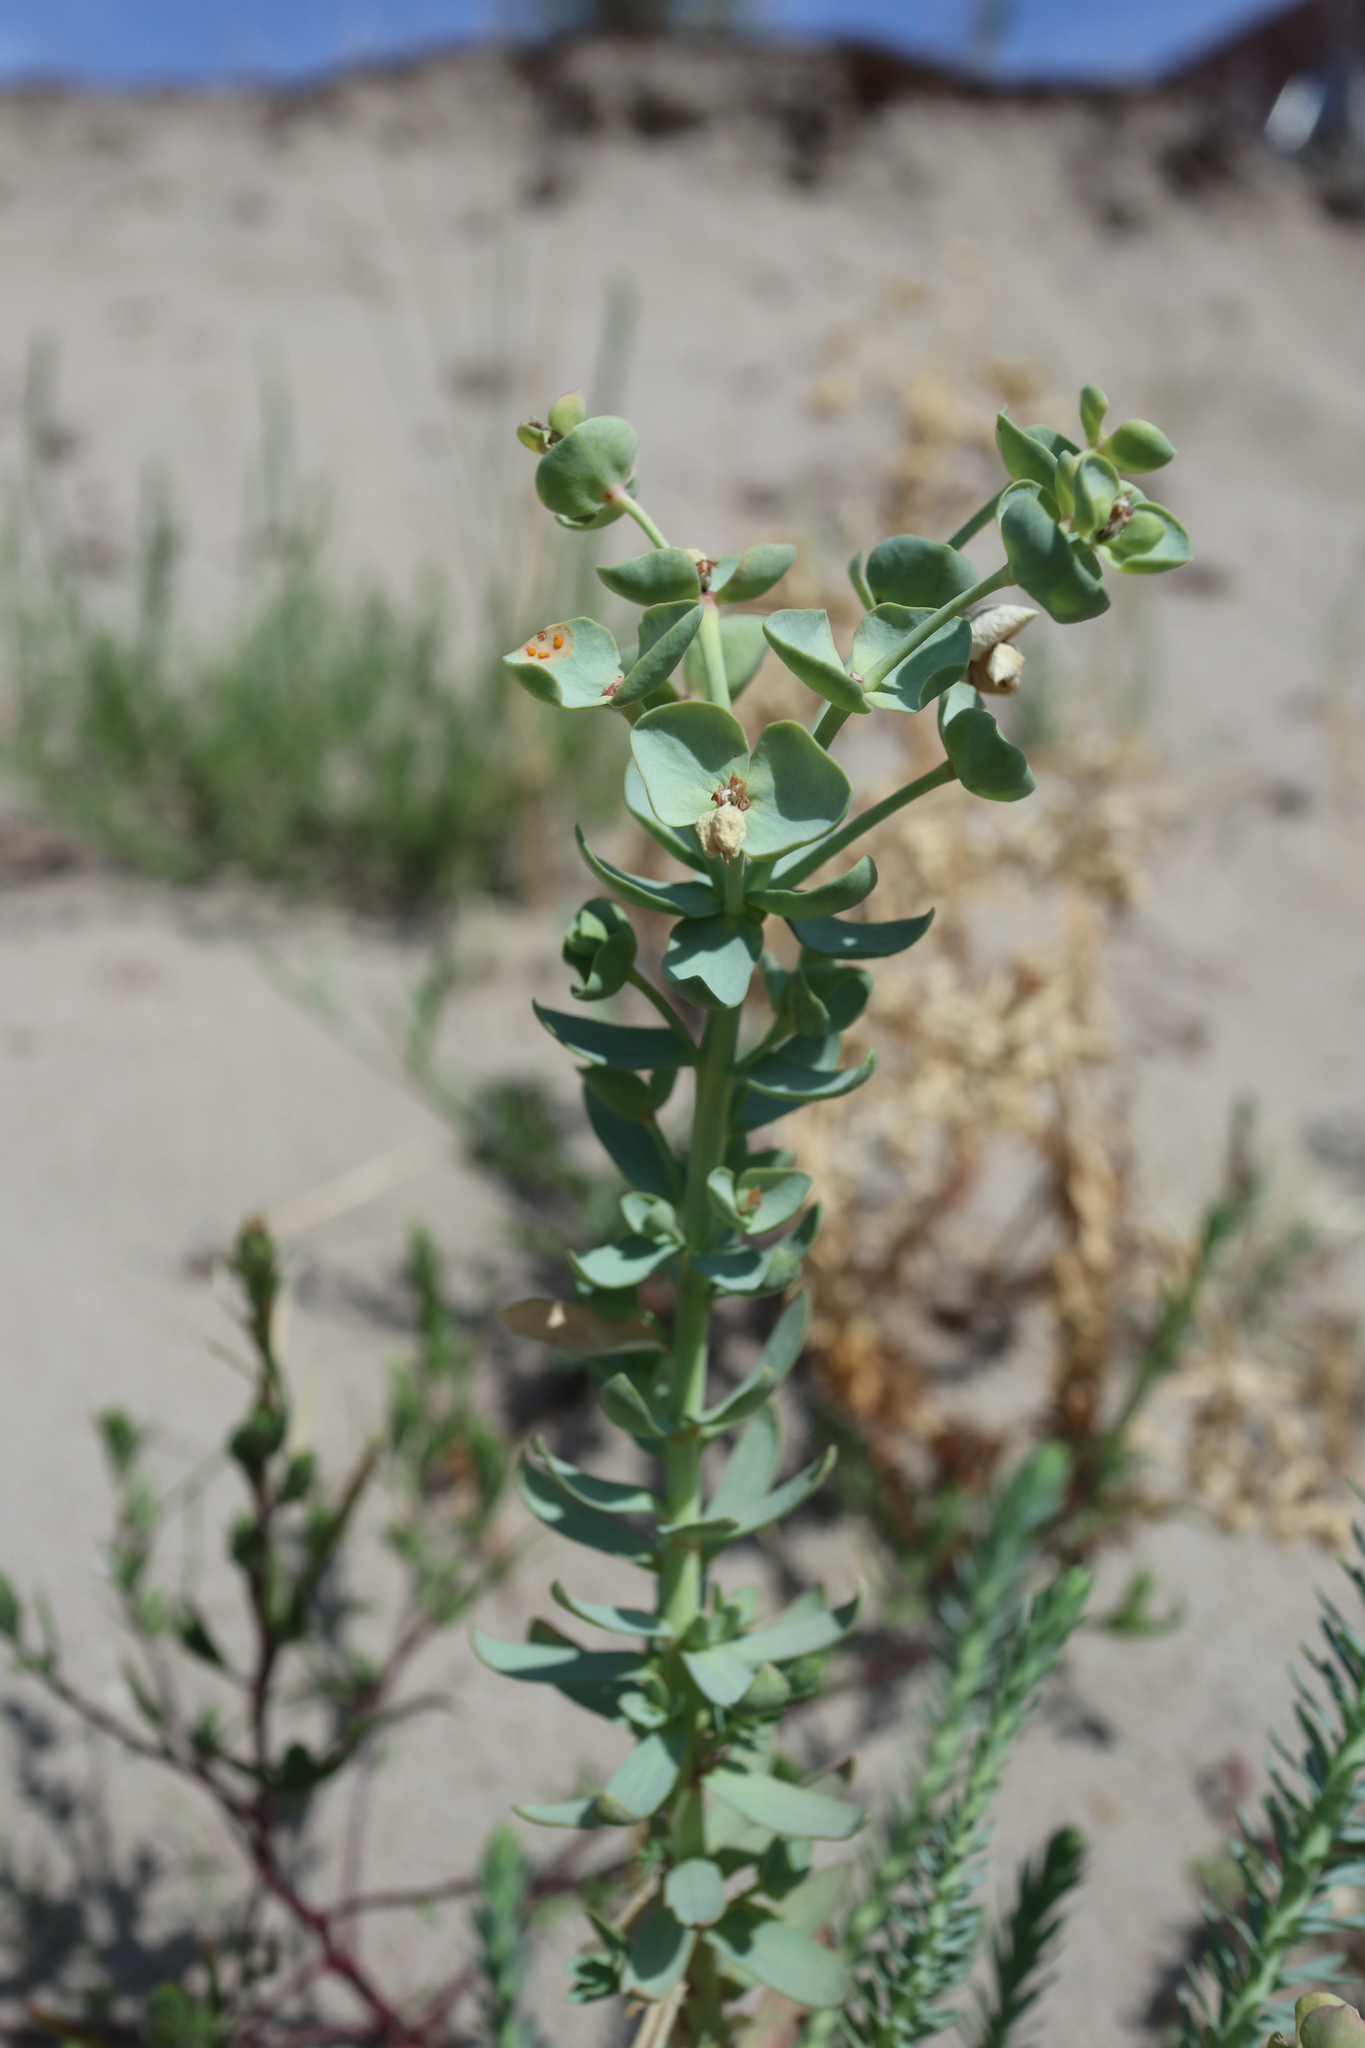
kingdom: Plantae
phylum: Tracheophyta
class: Magnoliopsida
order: Malpighiales
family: Euphorbiaceae
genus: Euphorbia
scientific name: Euphorbia paralias
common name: Sea spurge
